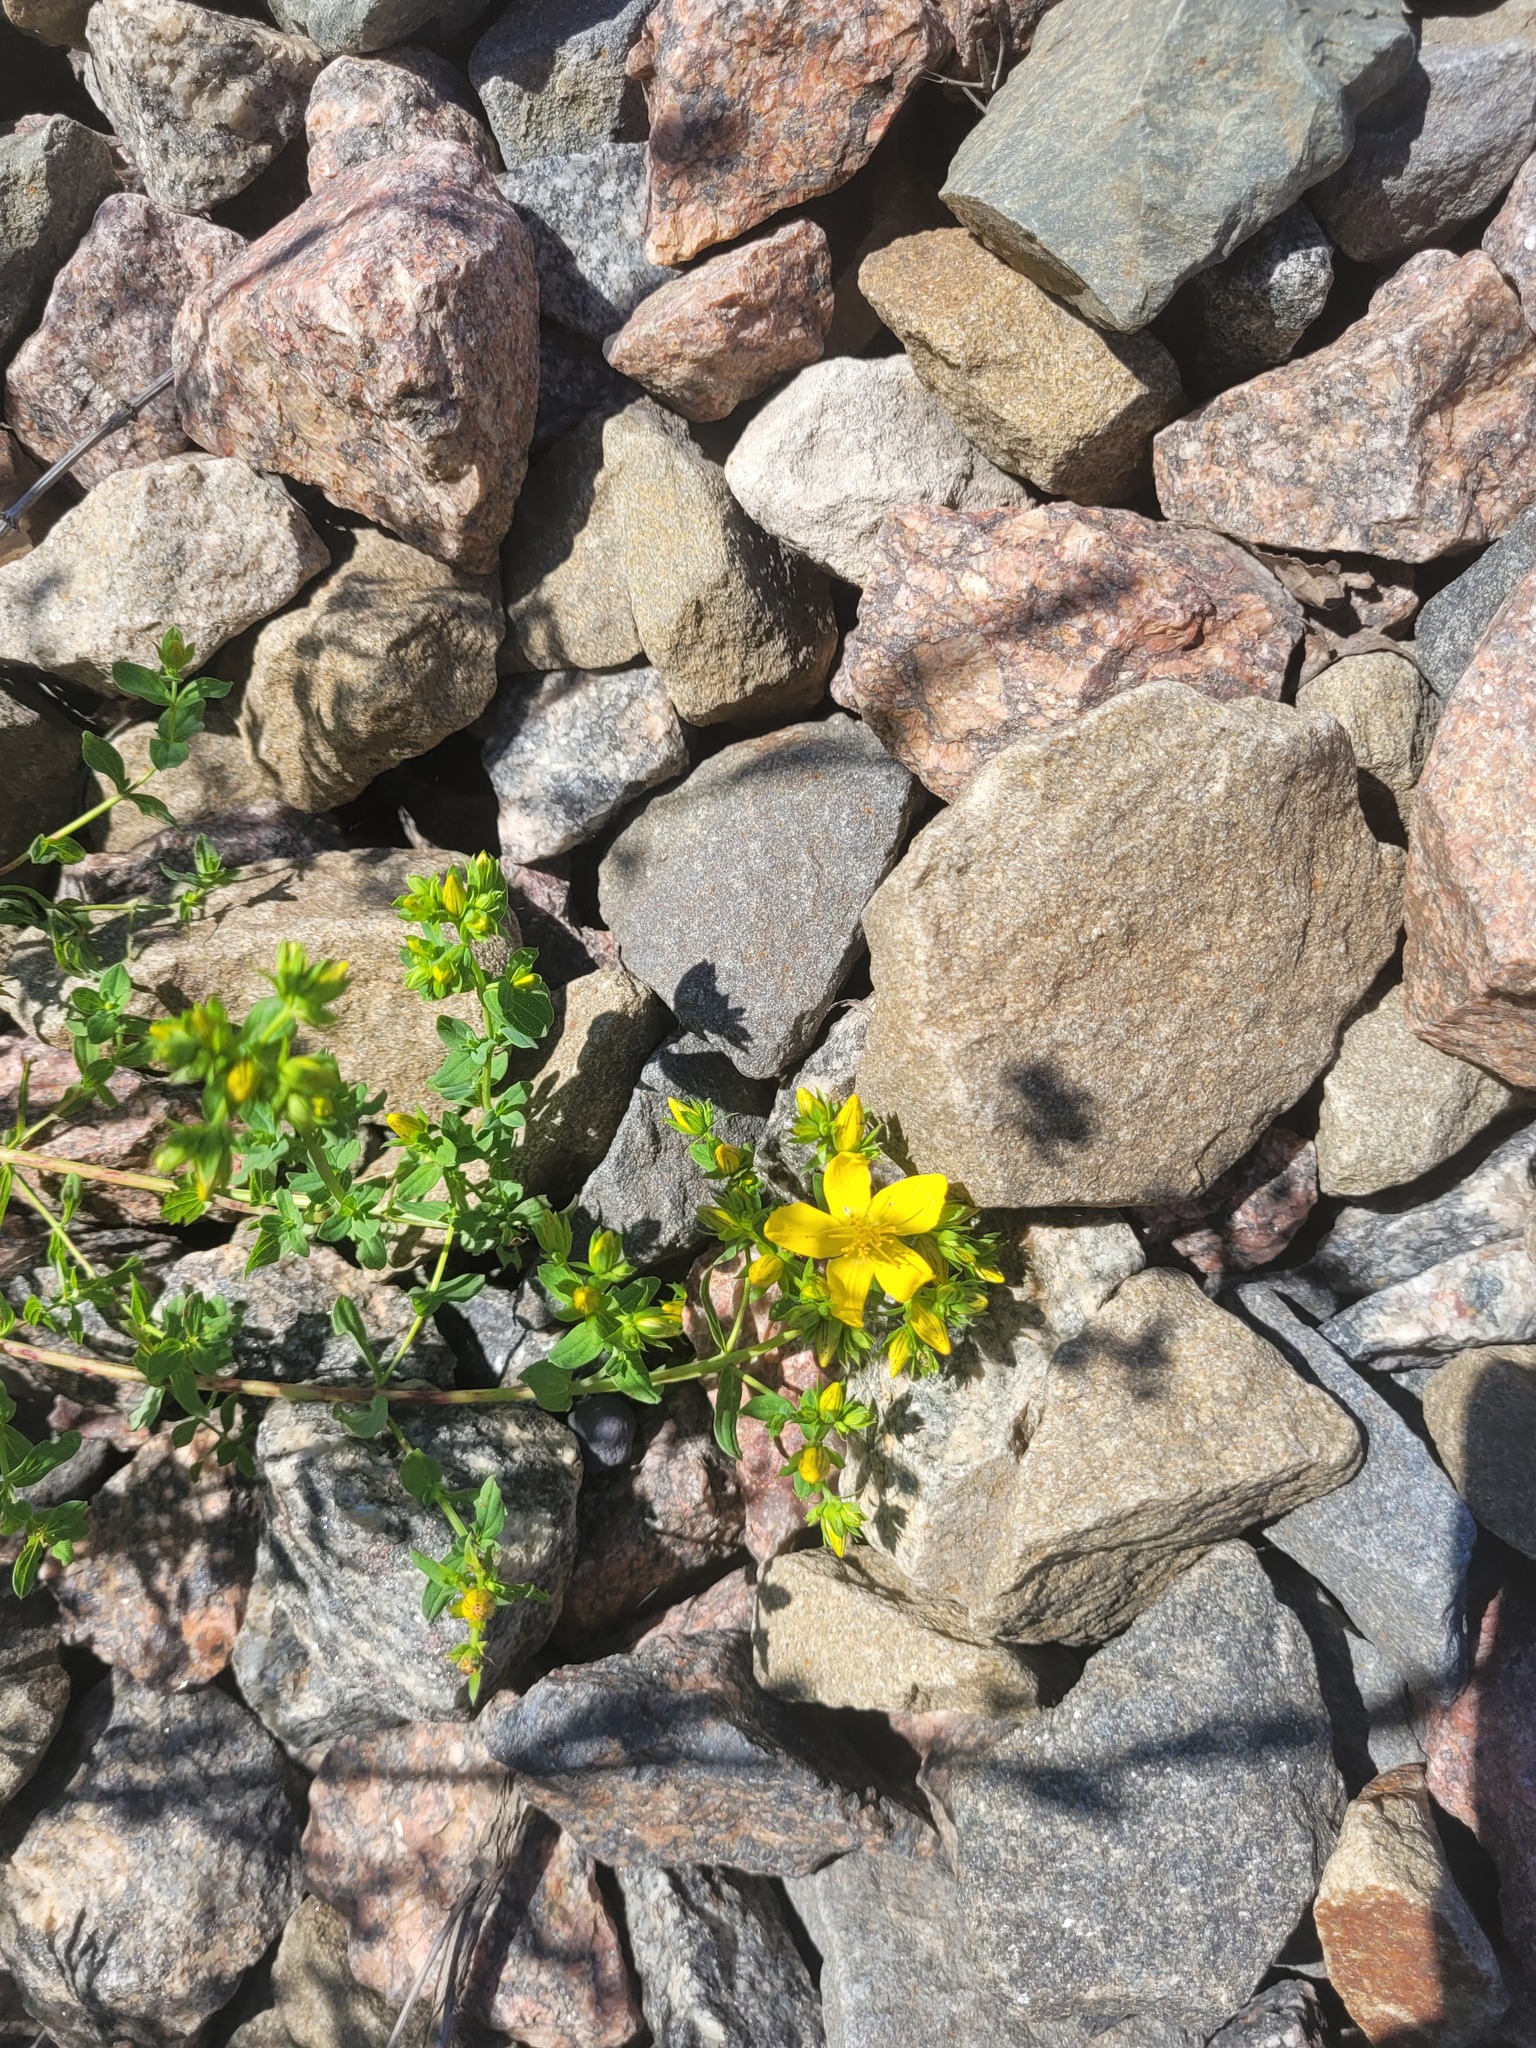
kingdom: Plantae
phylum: Tracheophyta
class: Magnoliopsida
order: Malpighiales
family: Hypericaceae
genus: Hypericum
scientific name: Hypericum perforatum
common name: Common st. johnswort
